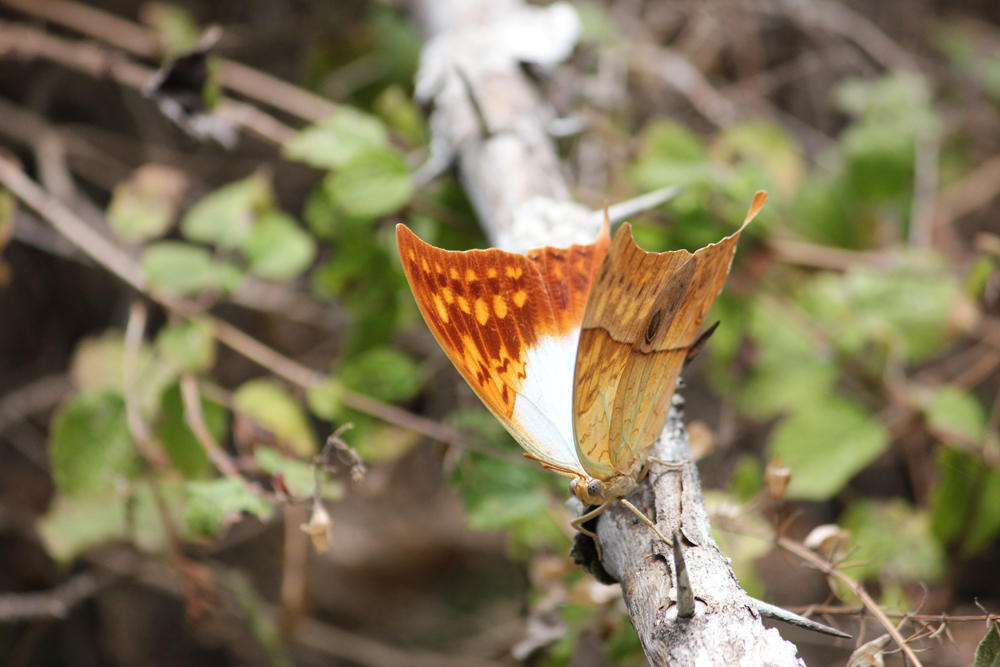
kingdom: Animalia
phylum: Arthropoda
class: Insecta
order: Lepidoptera
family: Nymphalidae
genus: Charaxes
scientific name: Charaxes varanes
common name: Common pearl charaxes
